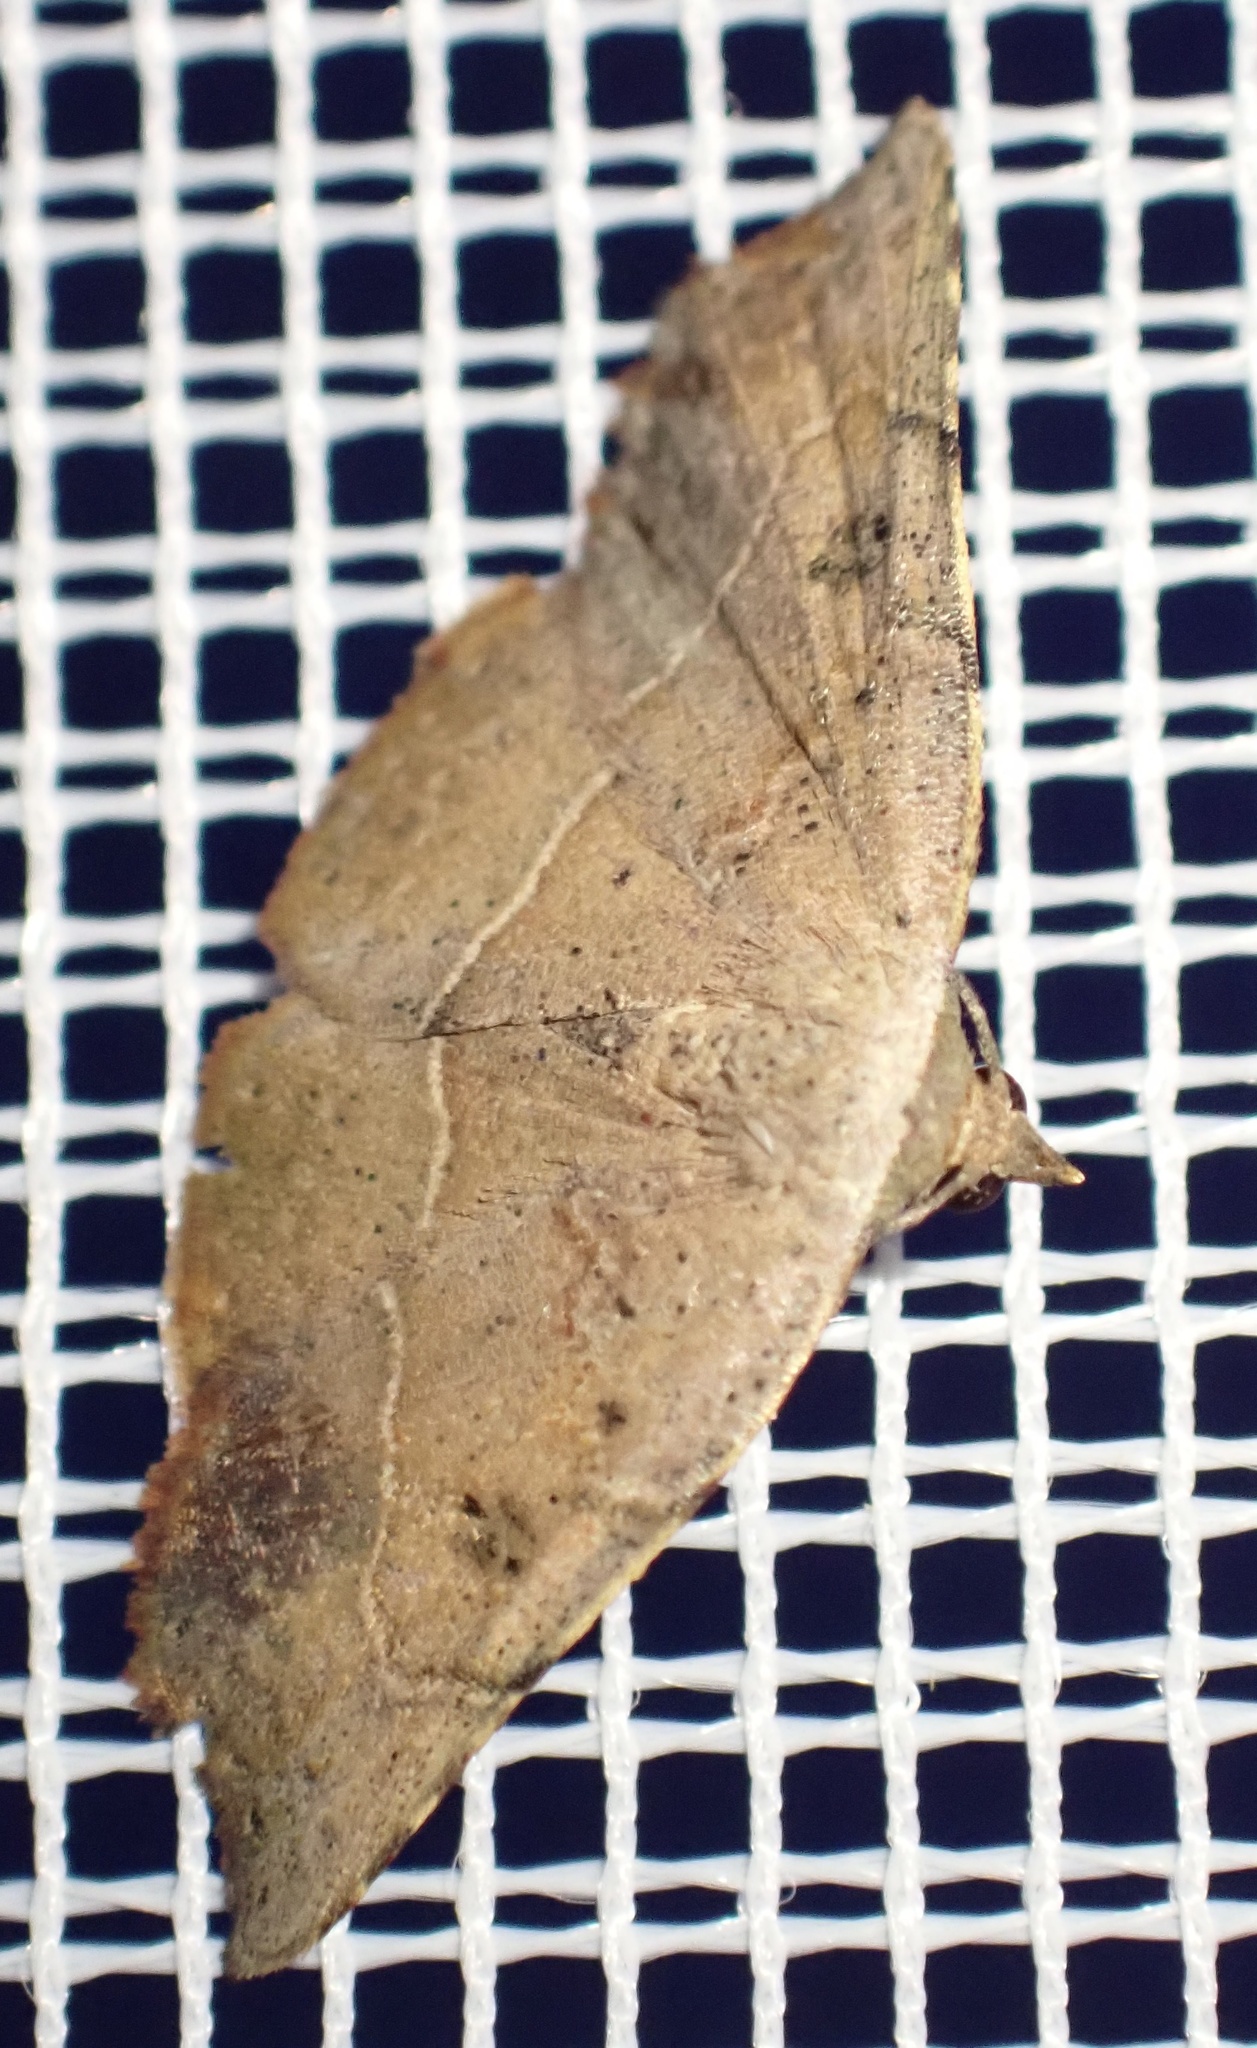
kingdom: Animalia
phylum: Arthropoda
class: Insecta
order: Lepidoptera
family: Noctuidae
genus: Cautatha
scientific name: Cautatha drepanodes
